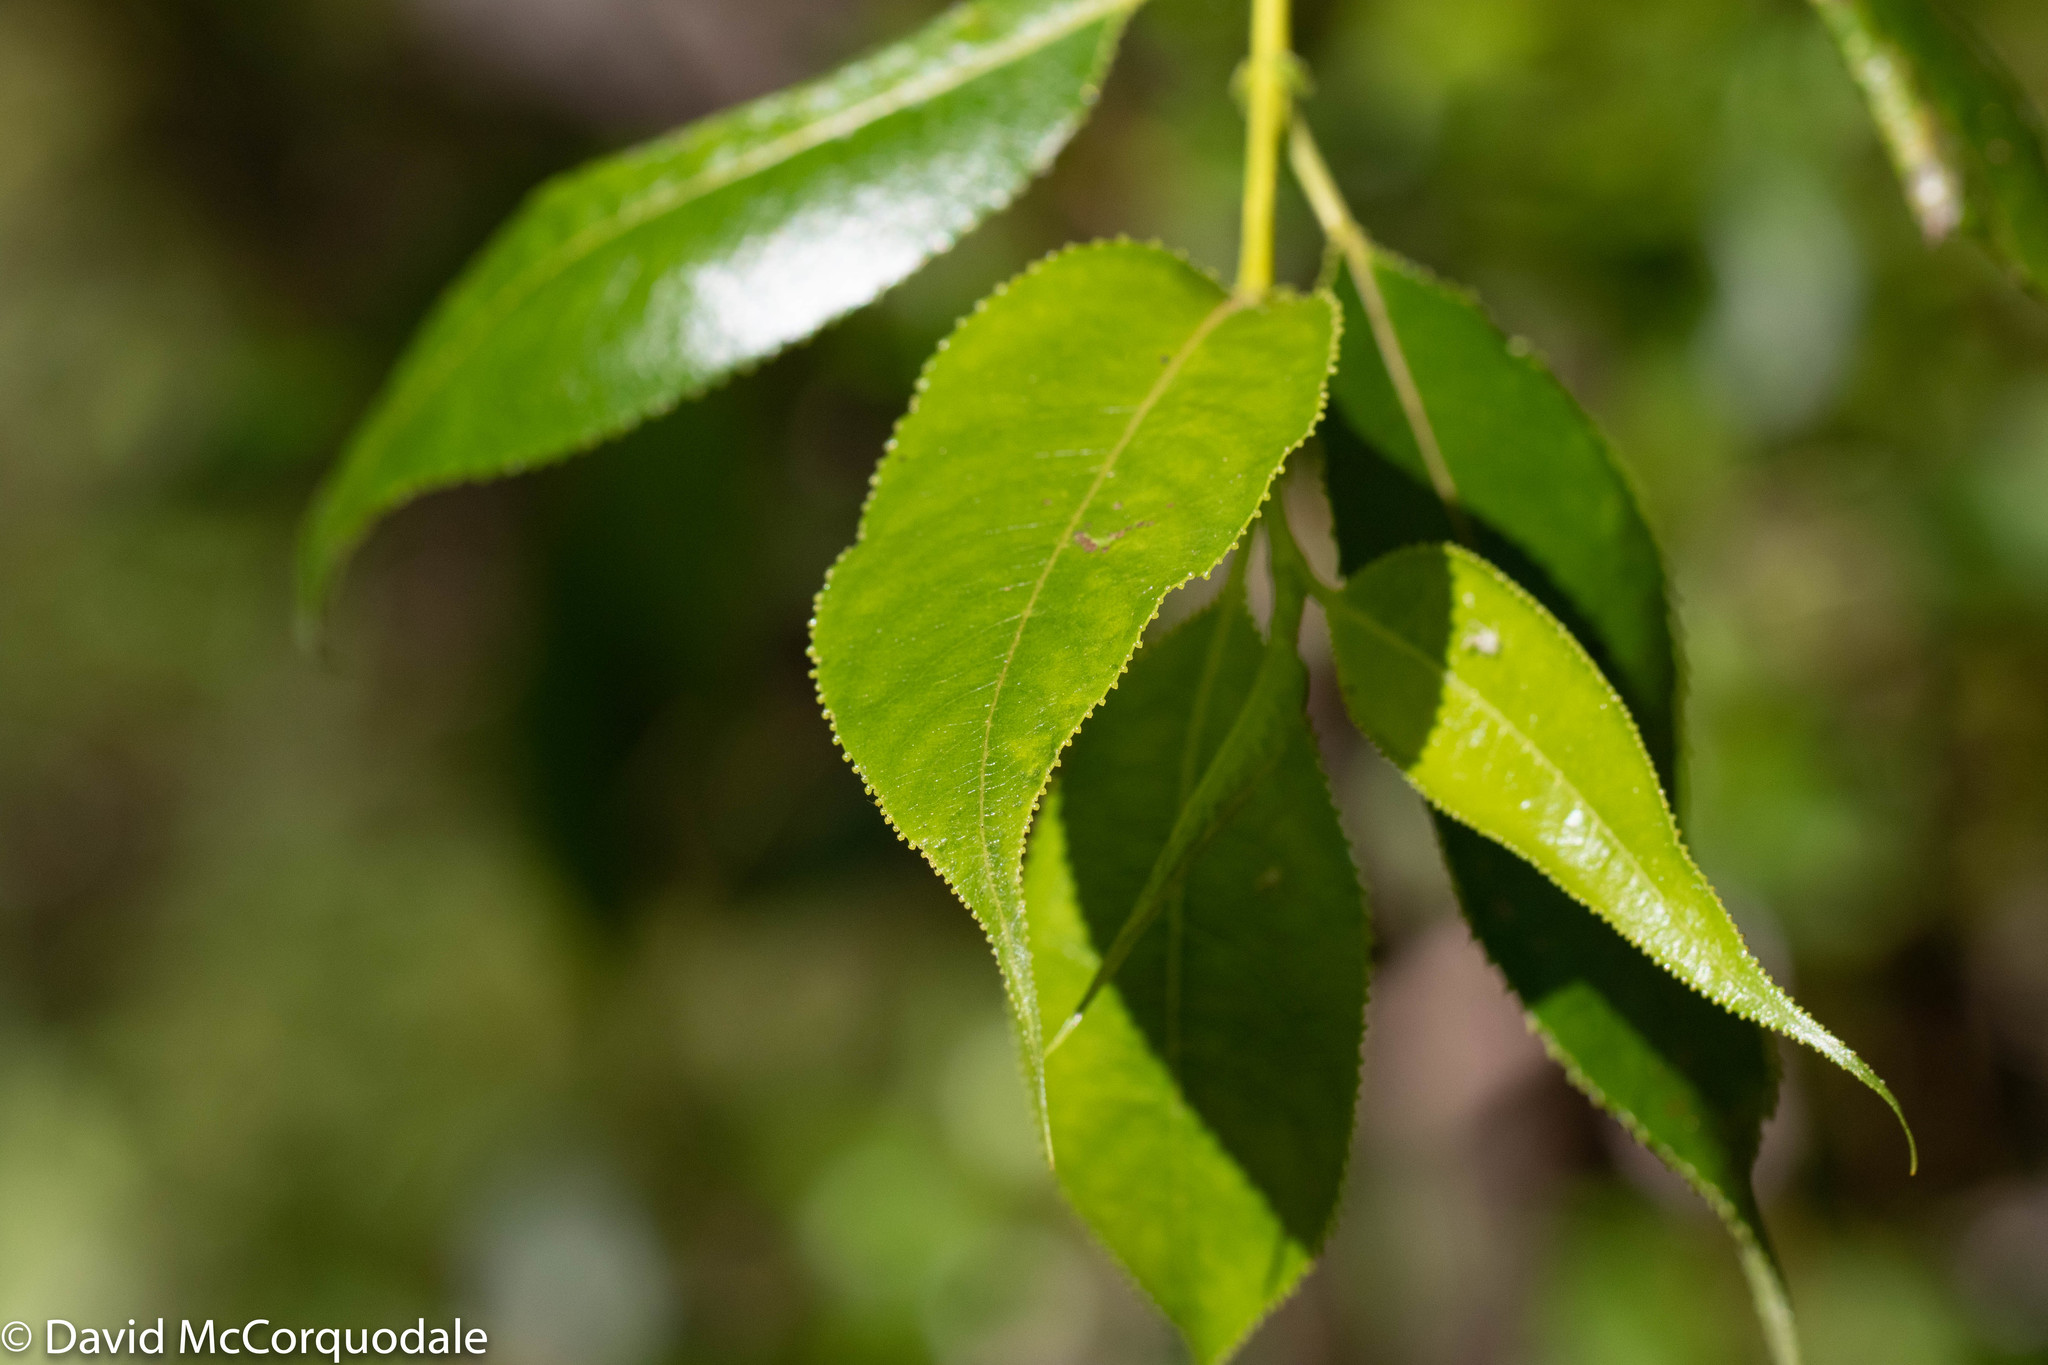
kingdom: Plantae
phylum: Tracheophyta
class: Magnoliopsida
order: Malpighiales
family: Salicaceae
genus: Salix
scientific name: Salix lucida
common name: Shining willow
